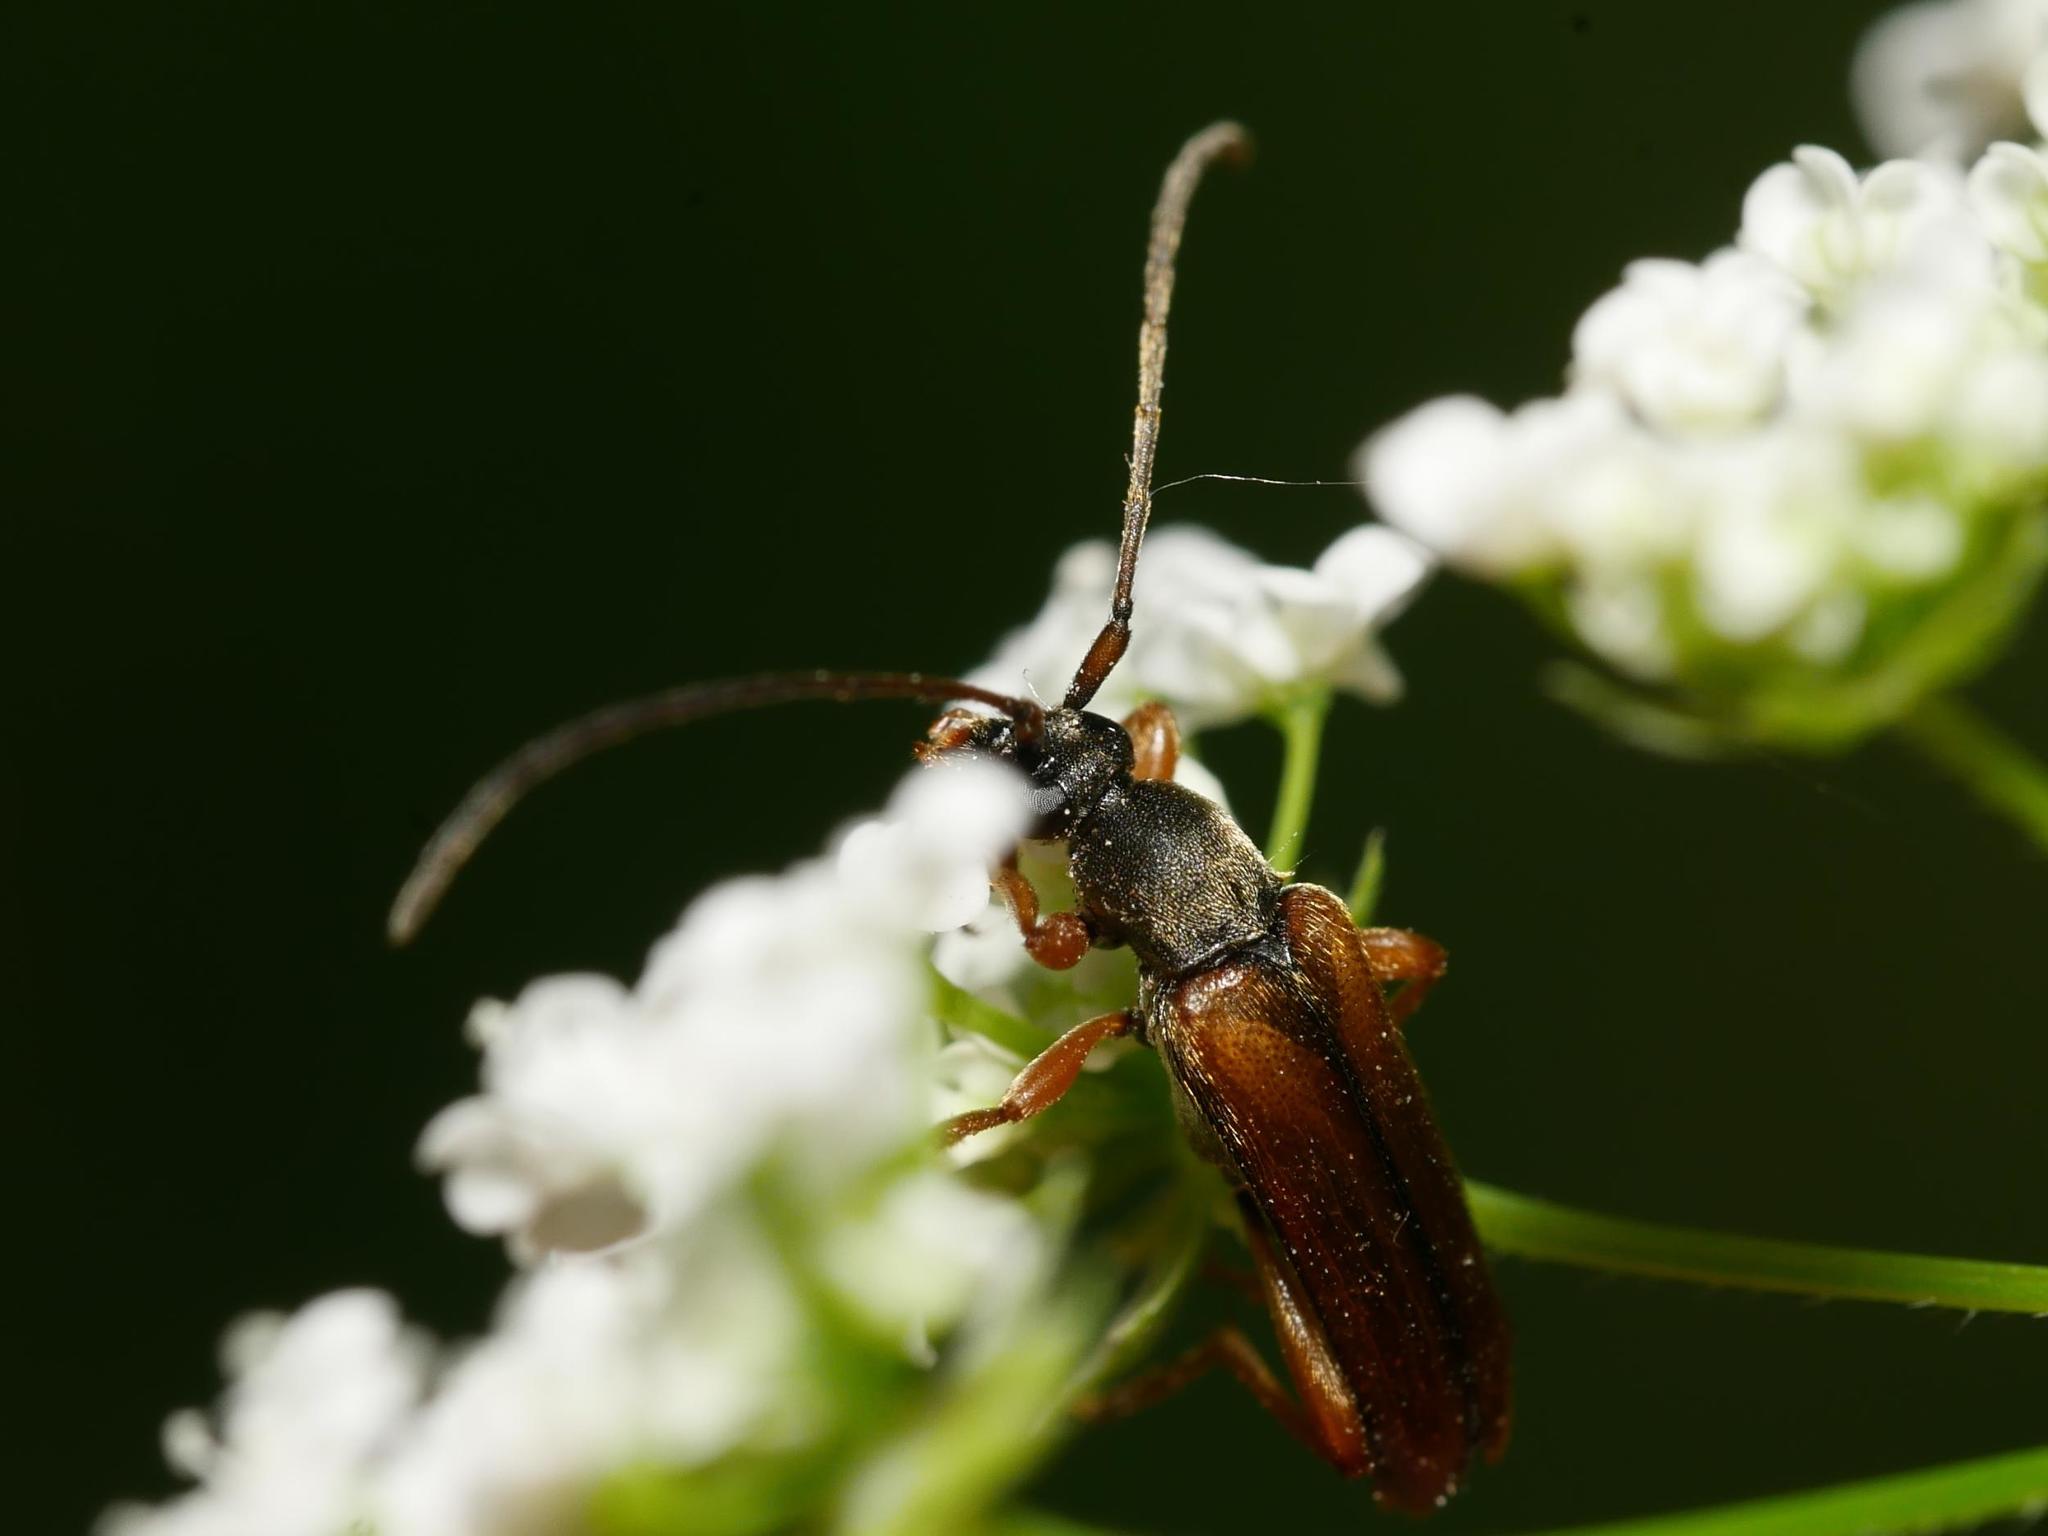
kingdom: Animalia
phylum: Arthropoda
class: Insecta
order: Coleoptera
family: Cerambycidae
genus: Stenurella
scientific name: Stenurella melanura
